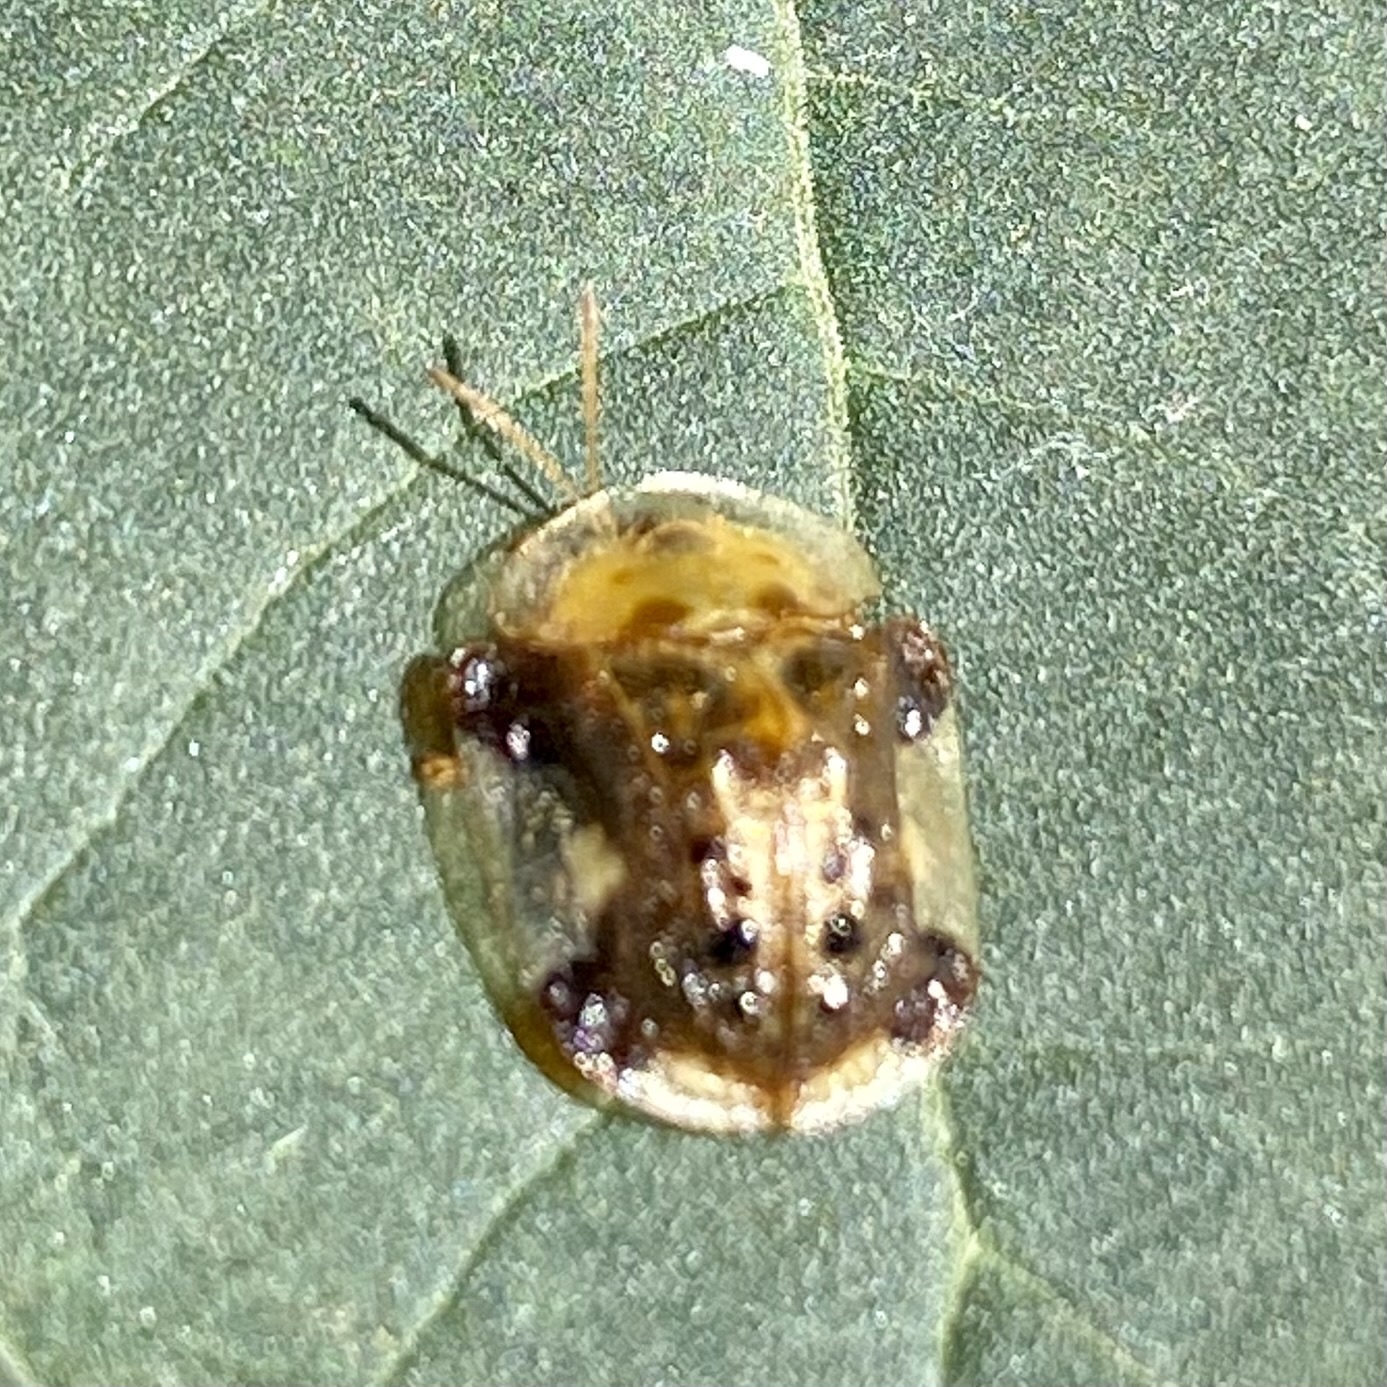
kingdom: Animalia
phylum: Arthropoda
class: Insecta
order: Coleoptera
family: Chrysomelidae
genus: Helocassis
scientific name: Helocassis testudinaria
